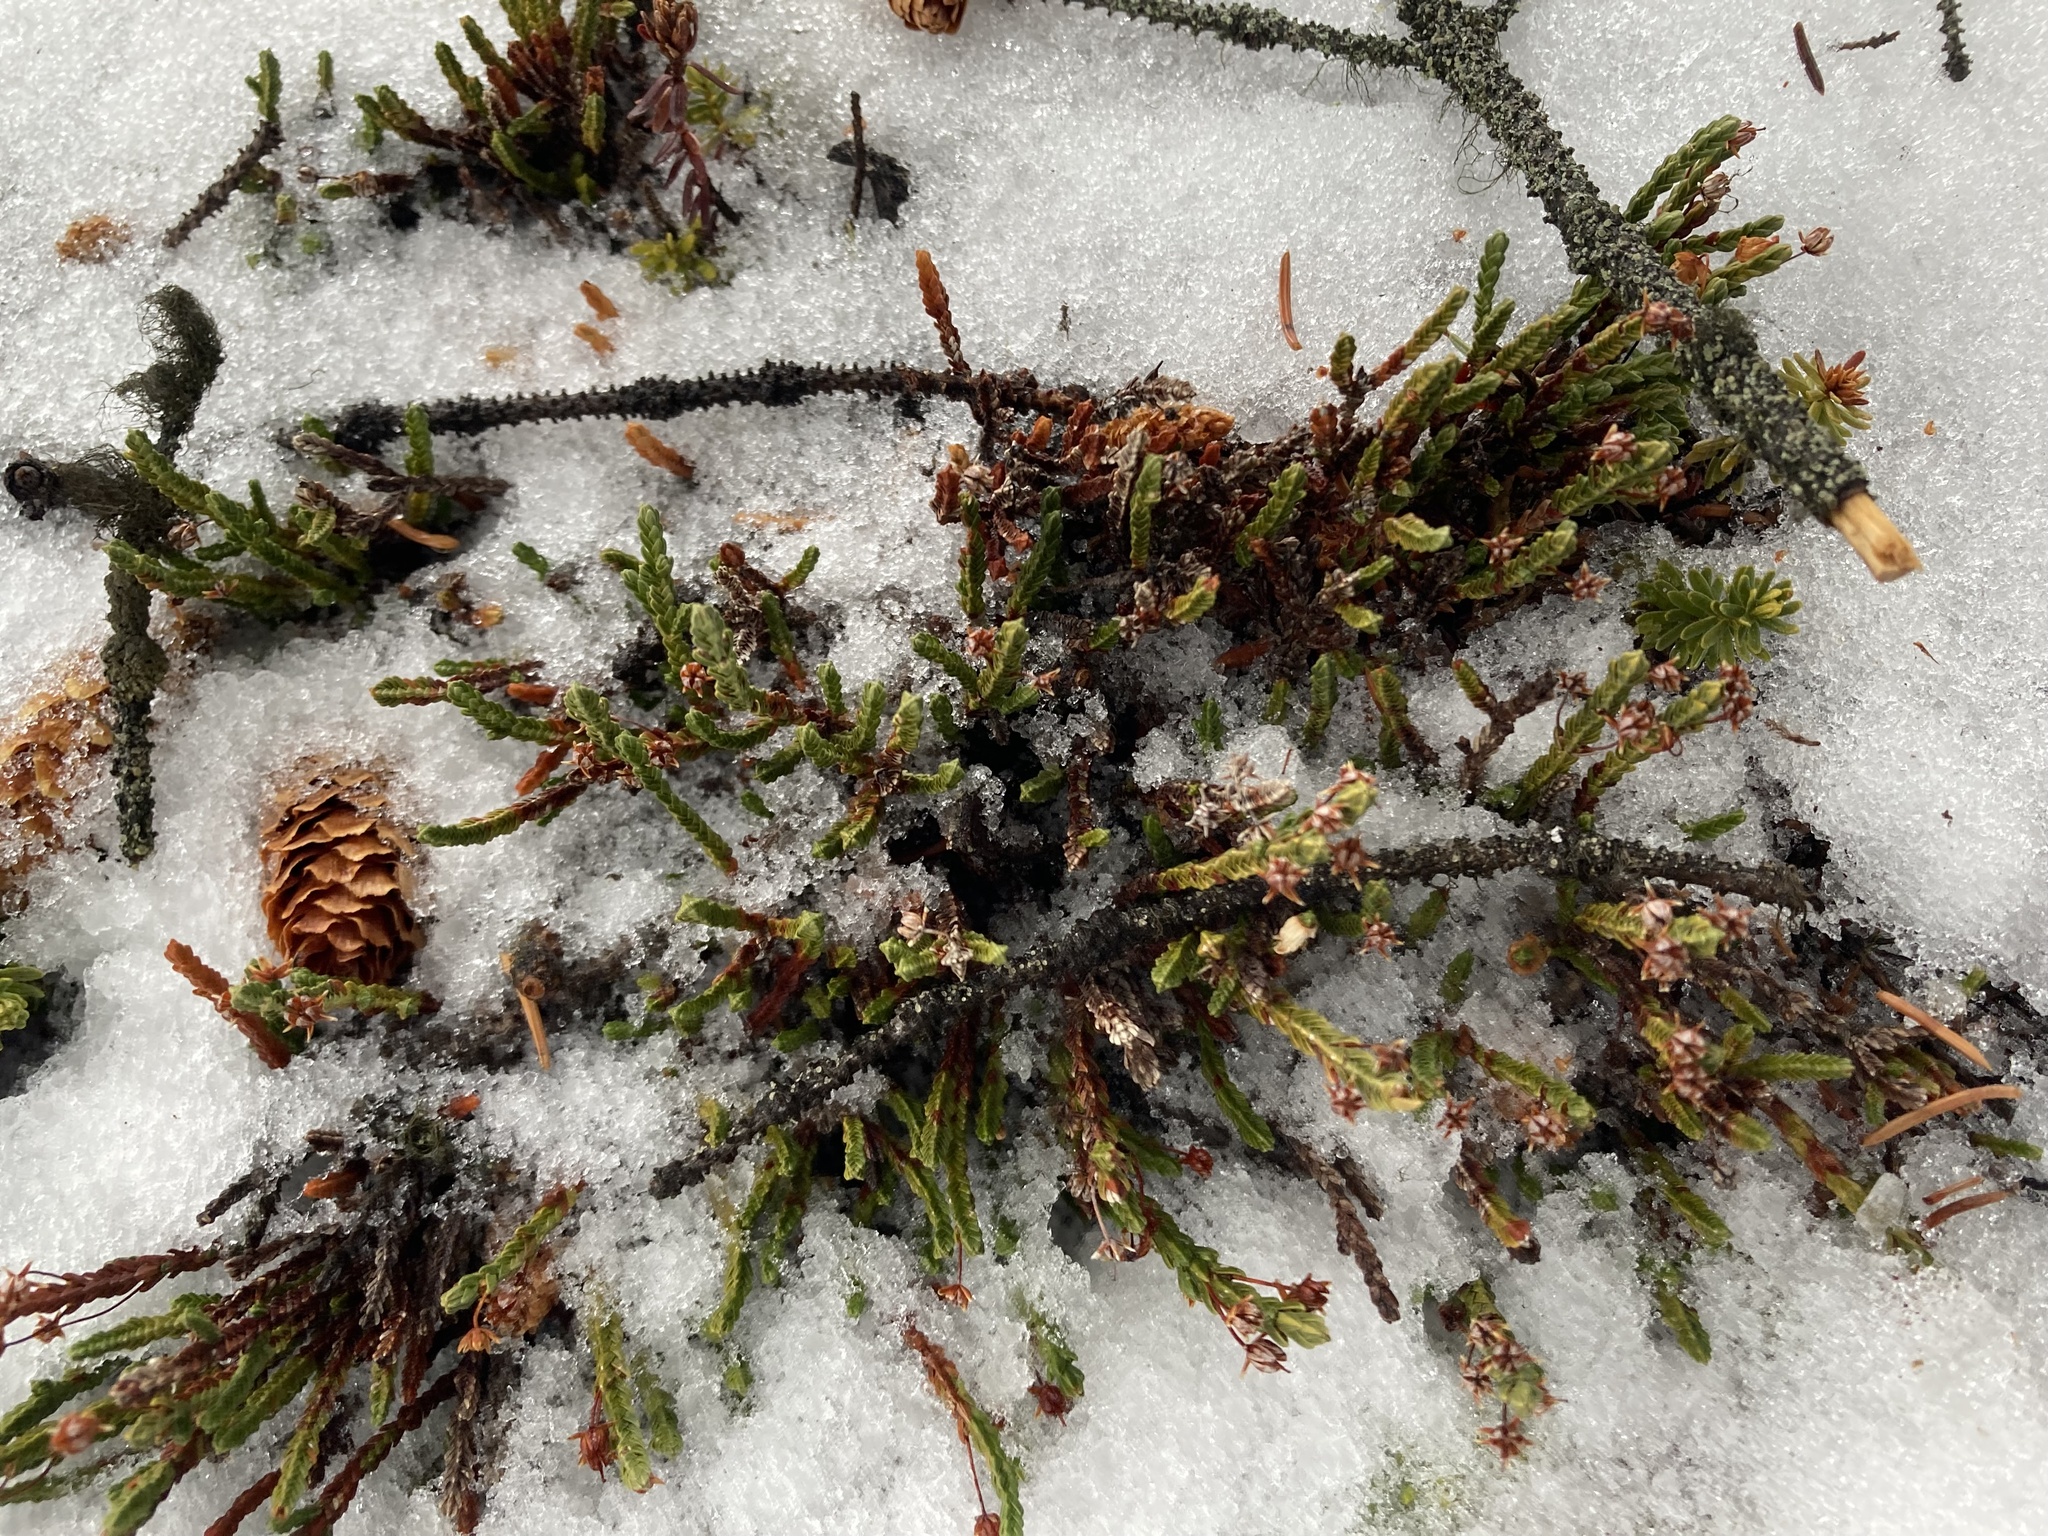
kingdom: Plantae
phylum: Tracheophyta
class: Magnoliopsida
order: Ericales
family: Ericaceae
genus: Cassiope
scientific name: Cassiope tetragona
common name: Arctic bell heather
